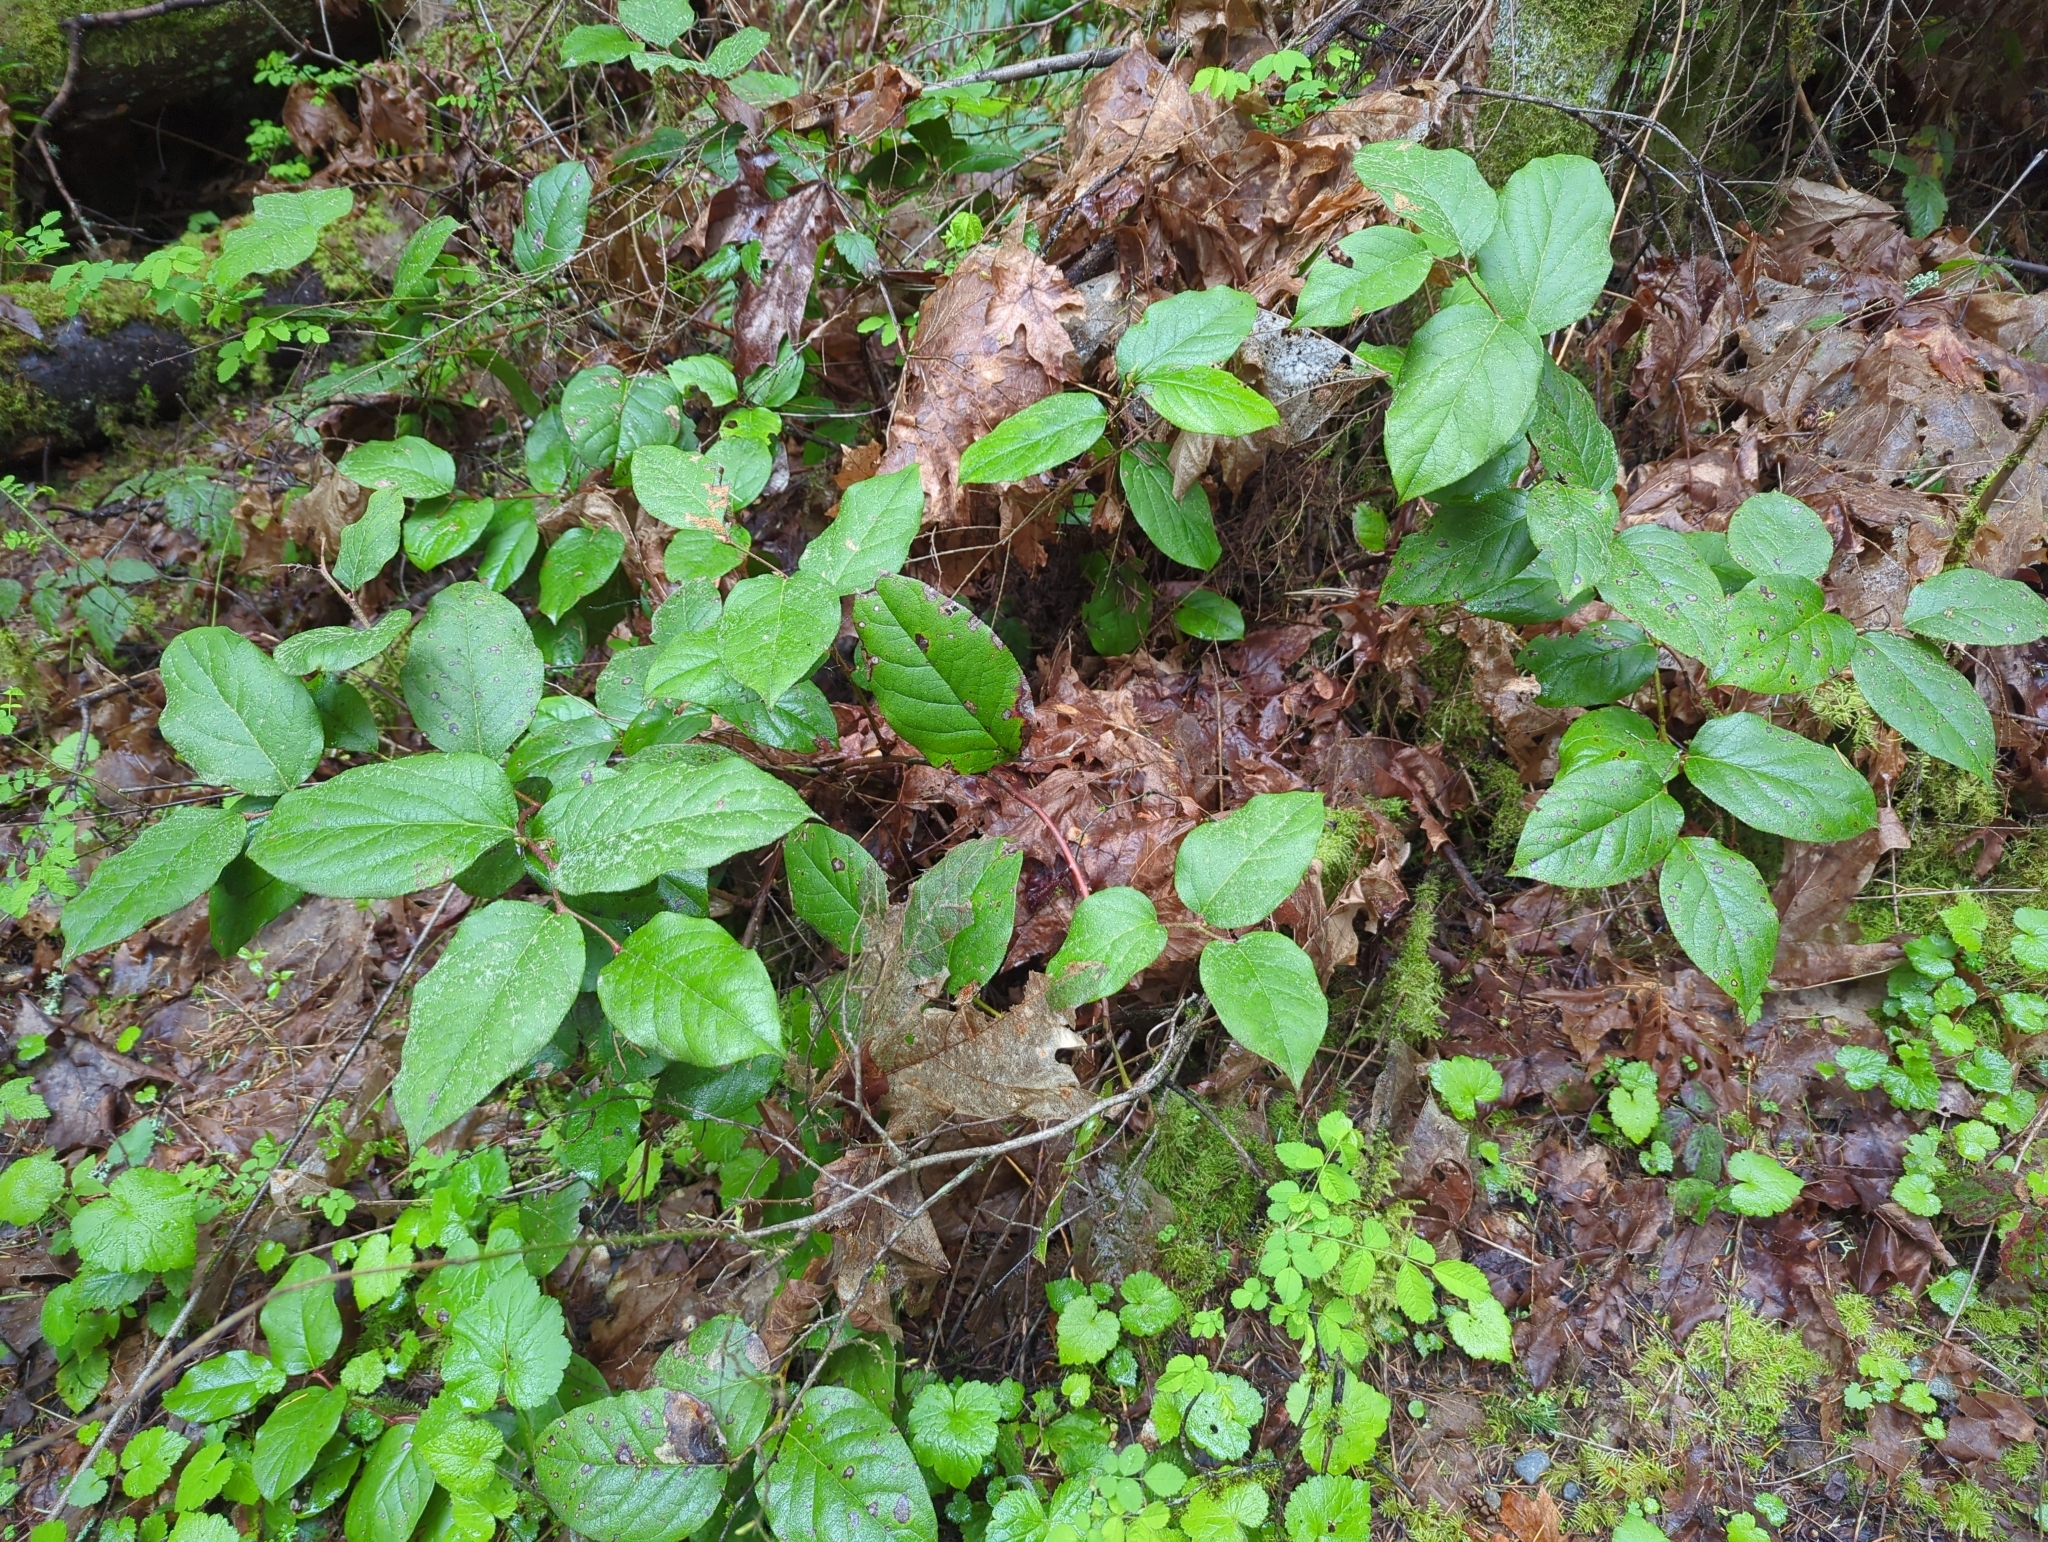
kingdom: Plantae
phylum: Tracheophyta
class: Magnoliopsida
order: Ericales
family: Ericaceae
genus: Gaultheria
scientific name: Gaultheria shallon
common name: Shallon
